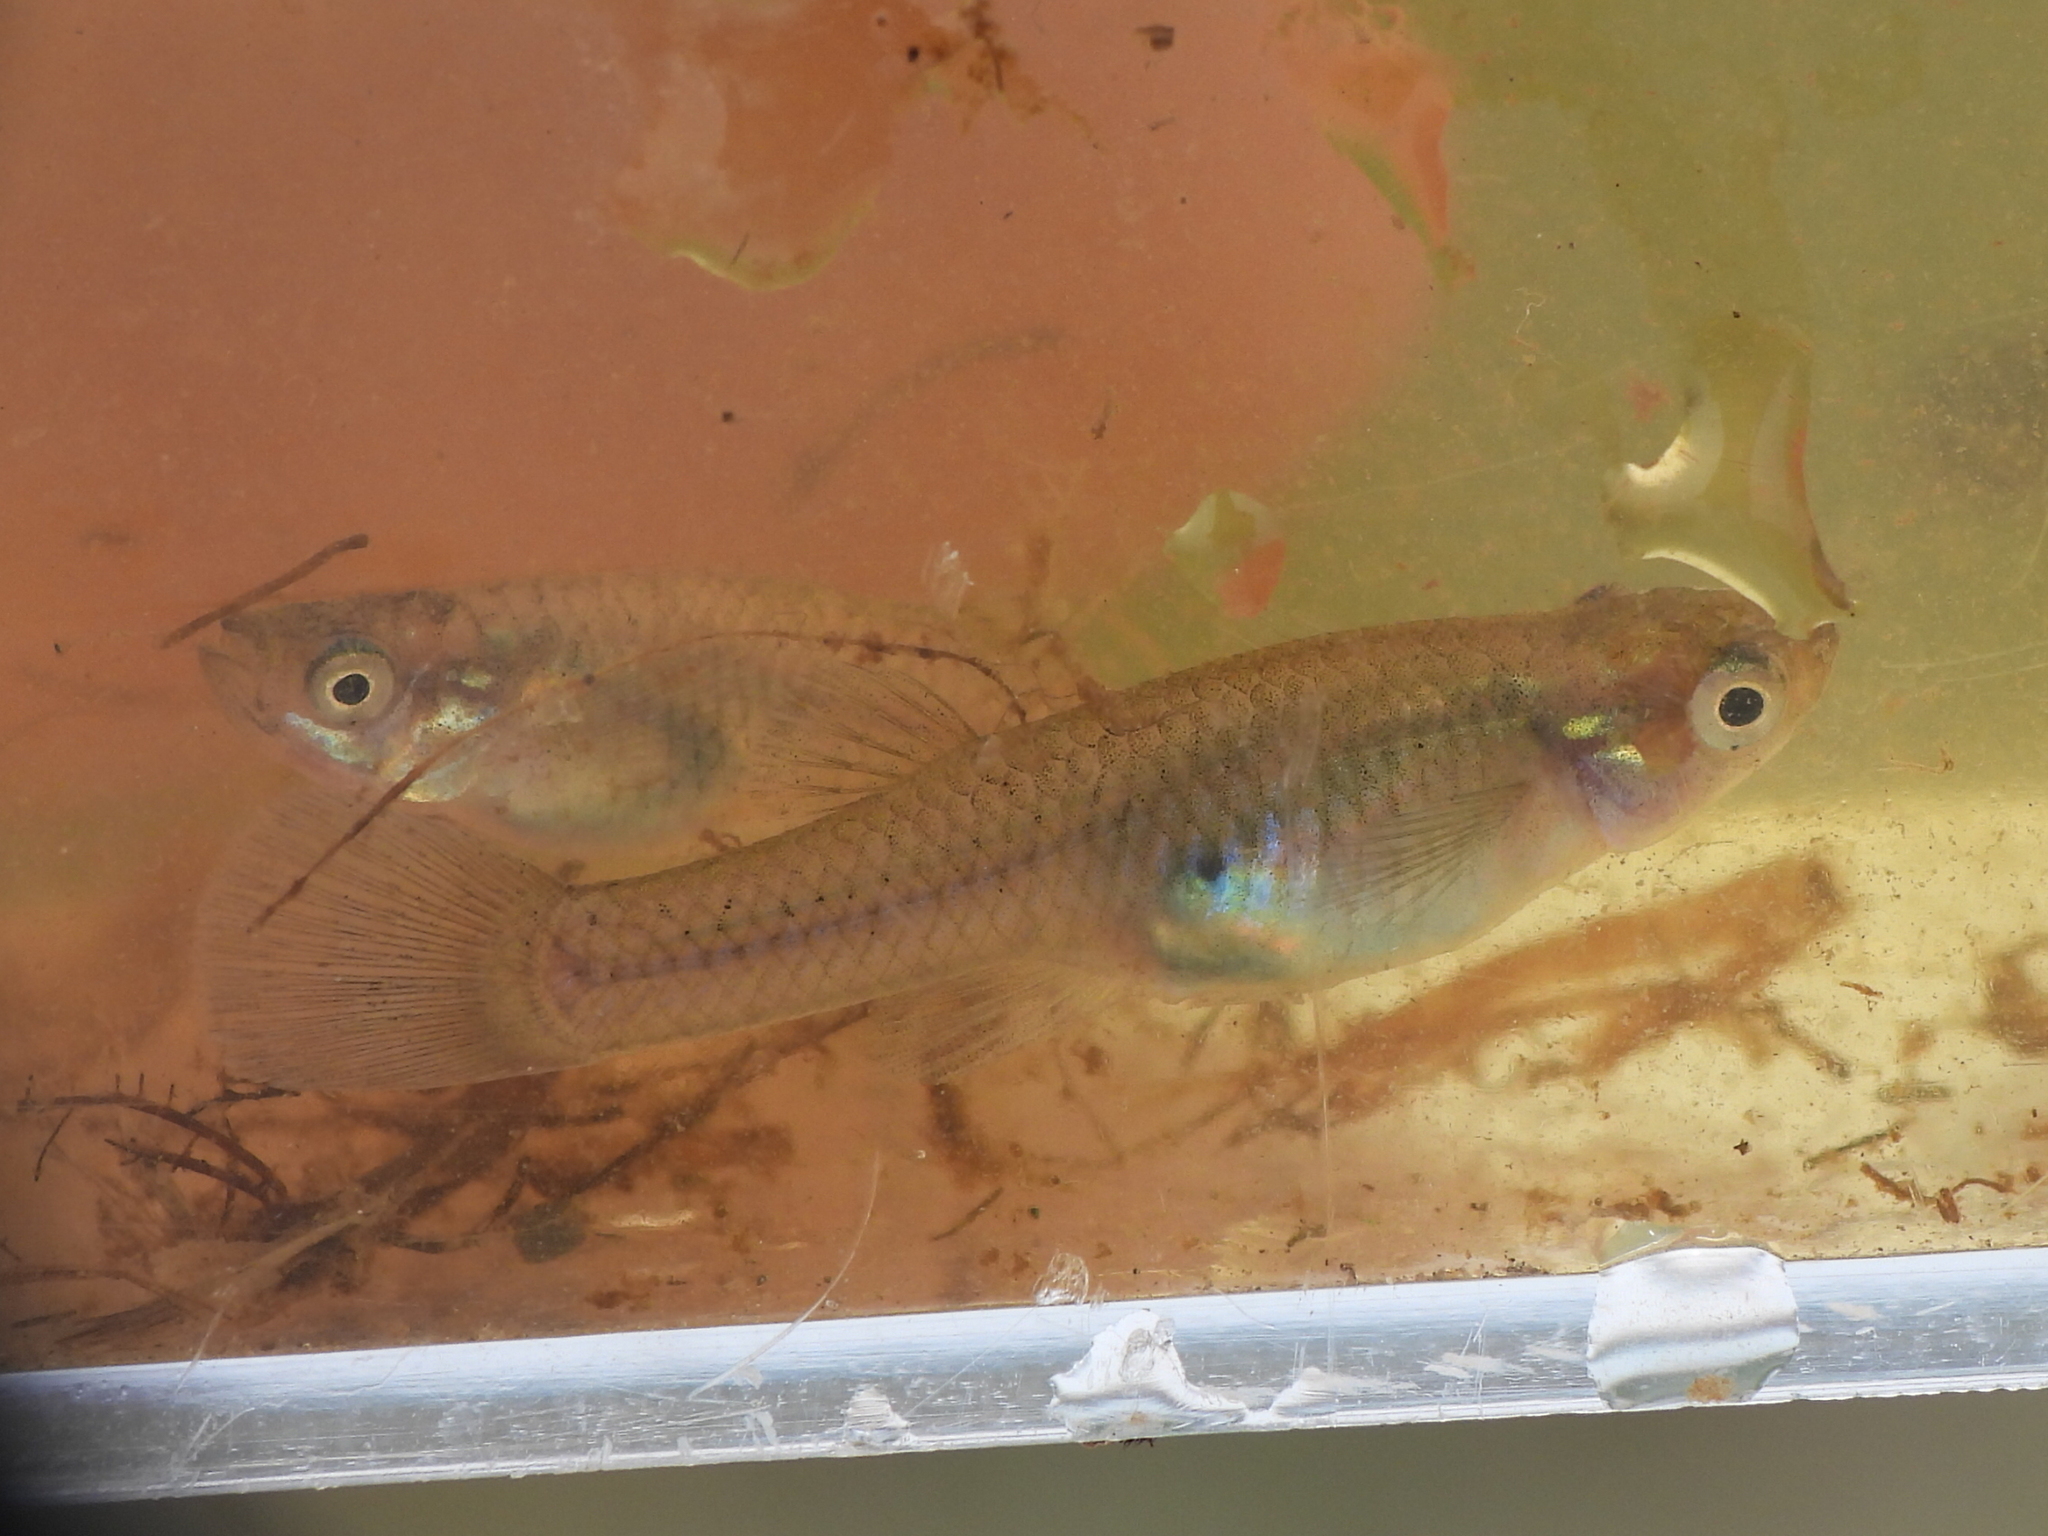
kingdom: Animalia
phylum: Chordata
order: Cyprinodontiformes
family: Poeciliidae
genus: Gambusia
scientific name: Gambusia affinis
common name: Mosquitofish
